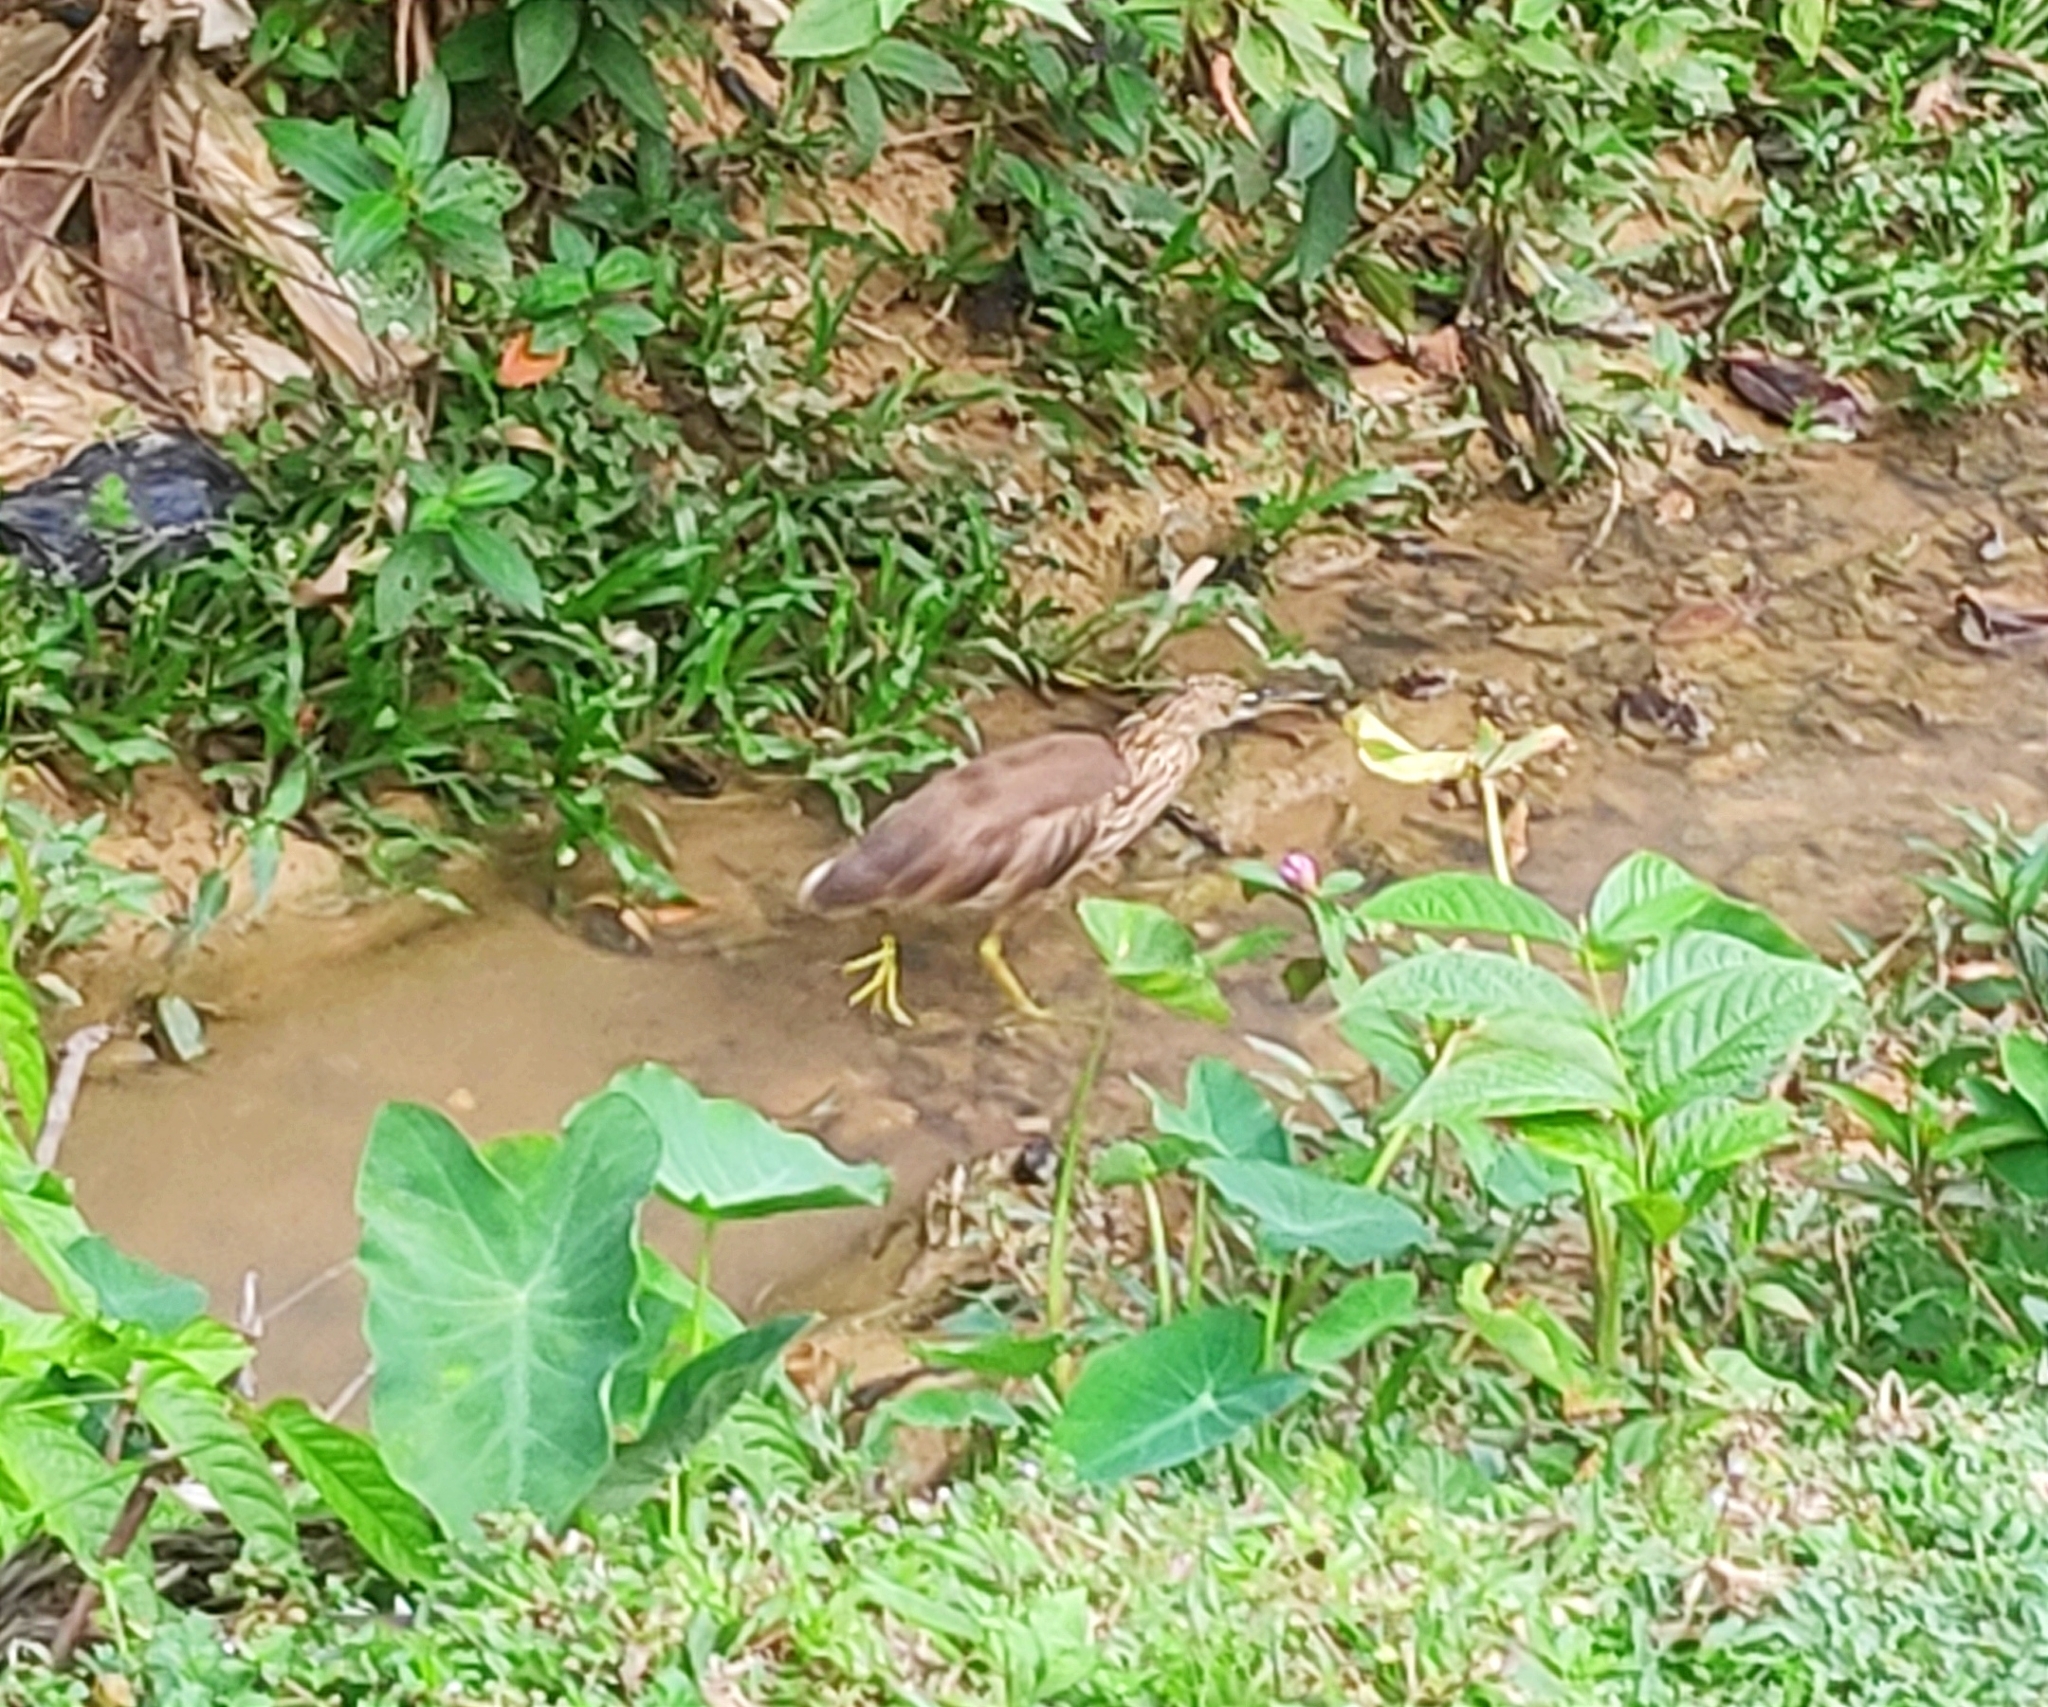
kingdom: Animalia
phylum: Chordata
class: Aves
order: Pelecaniformes
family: Ardeidae
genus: Ardeola
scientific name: Ardeola grayii
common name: Indian pond heron
